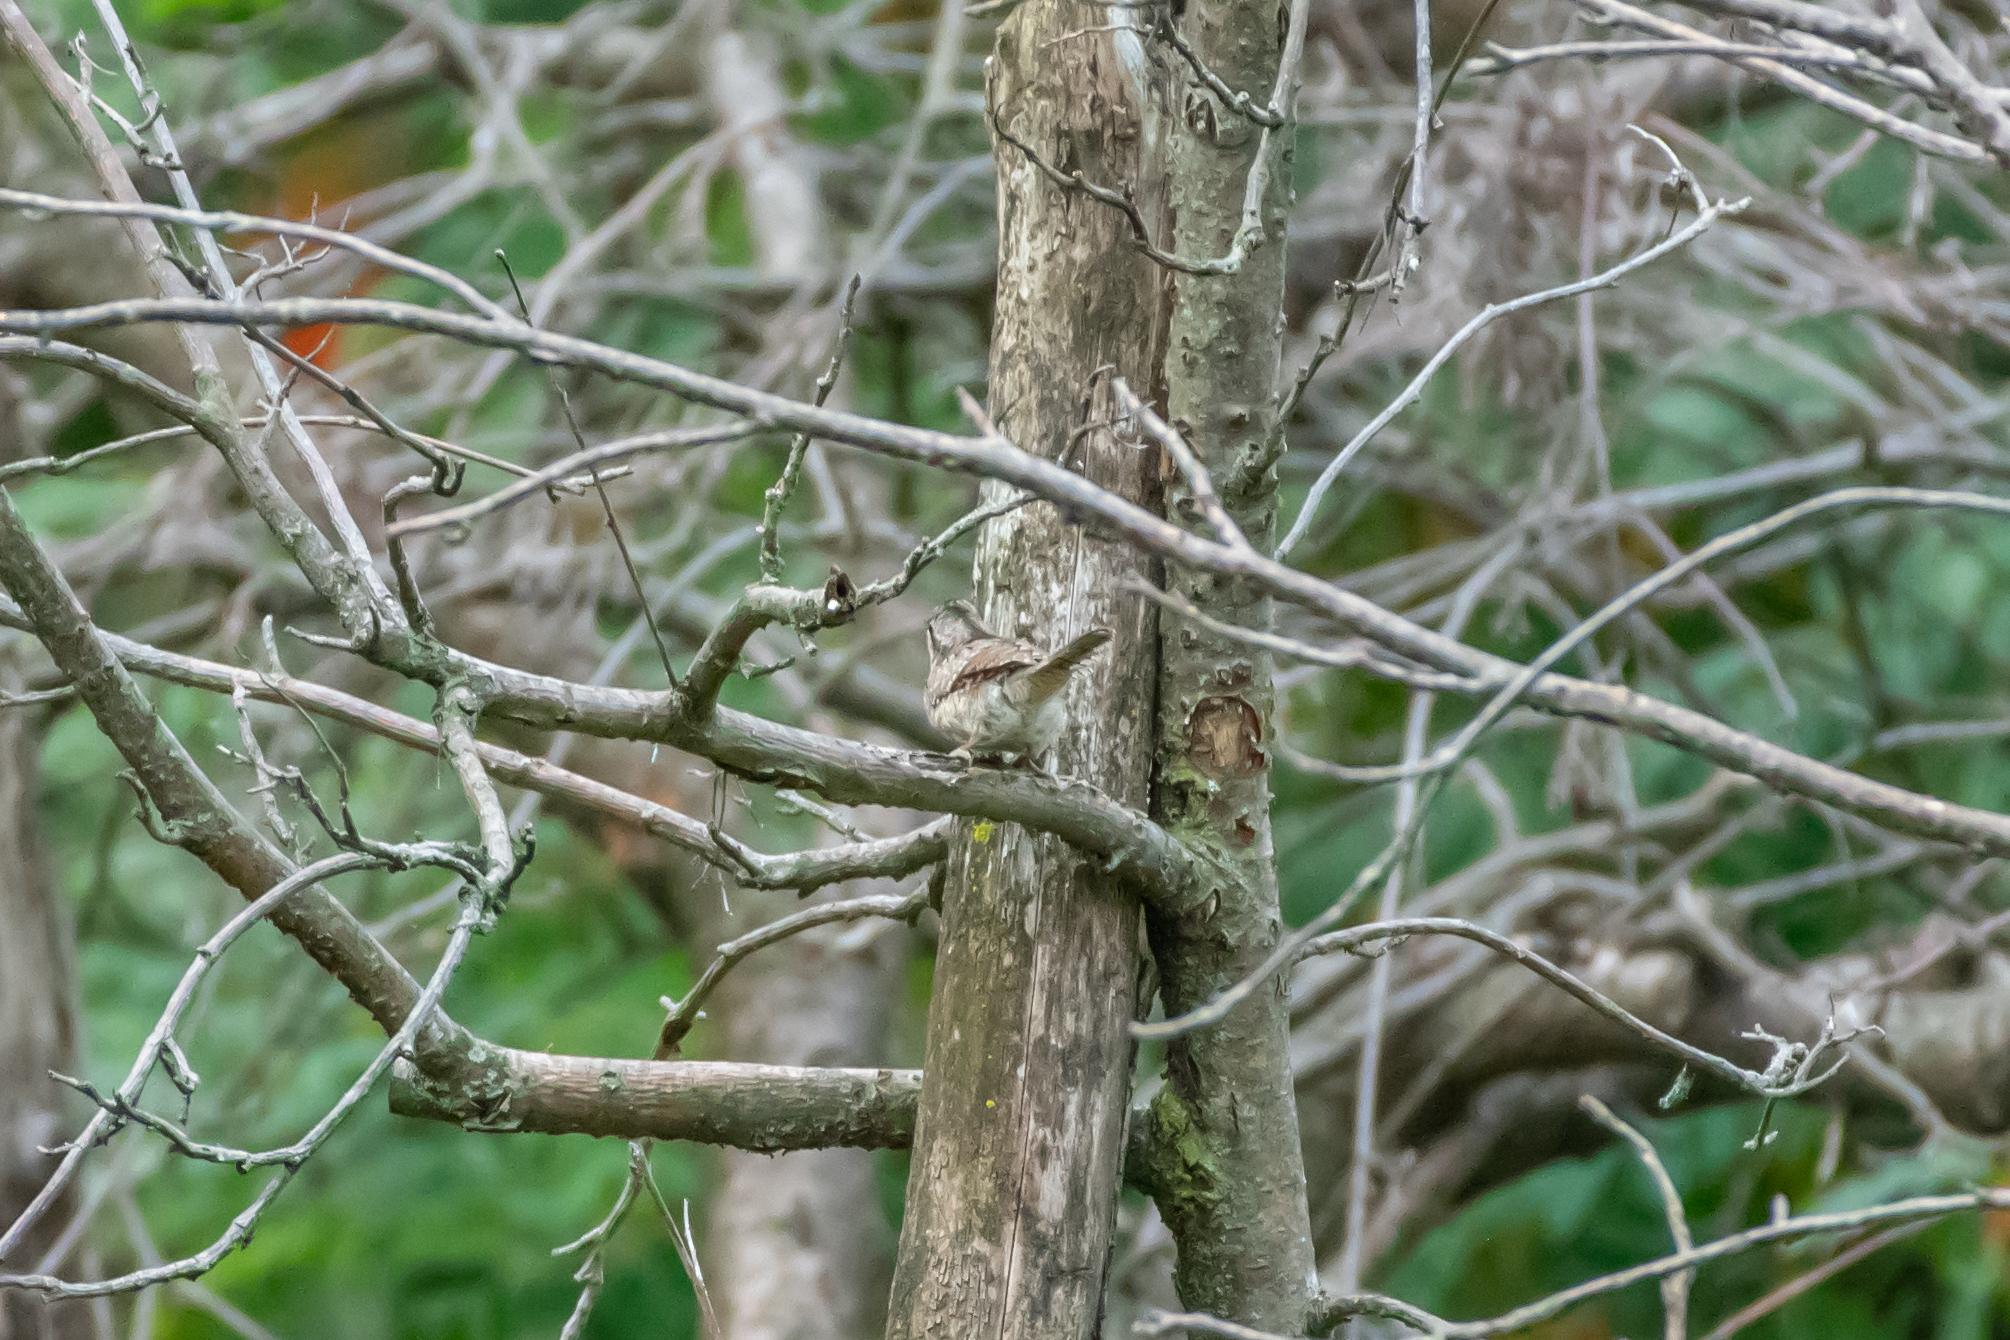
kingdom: Animalia
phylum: Chordata
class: Aves
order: Piciformes
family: Picidae
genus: Jynx
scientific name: Jynx torquilla
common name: Eurasian wryneck
